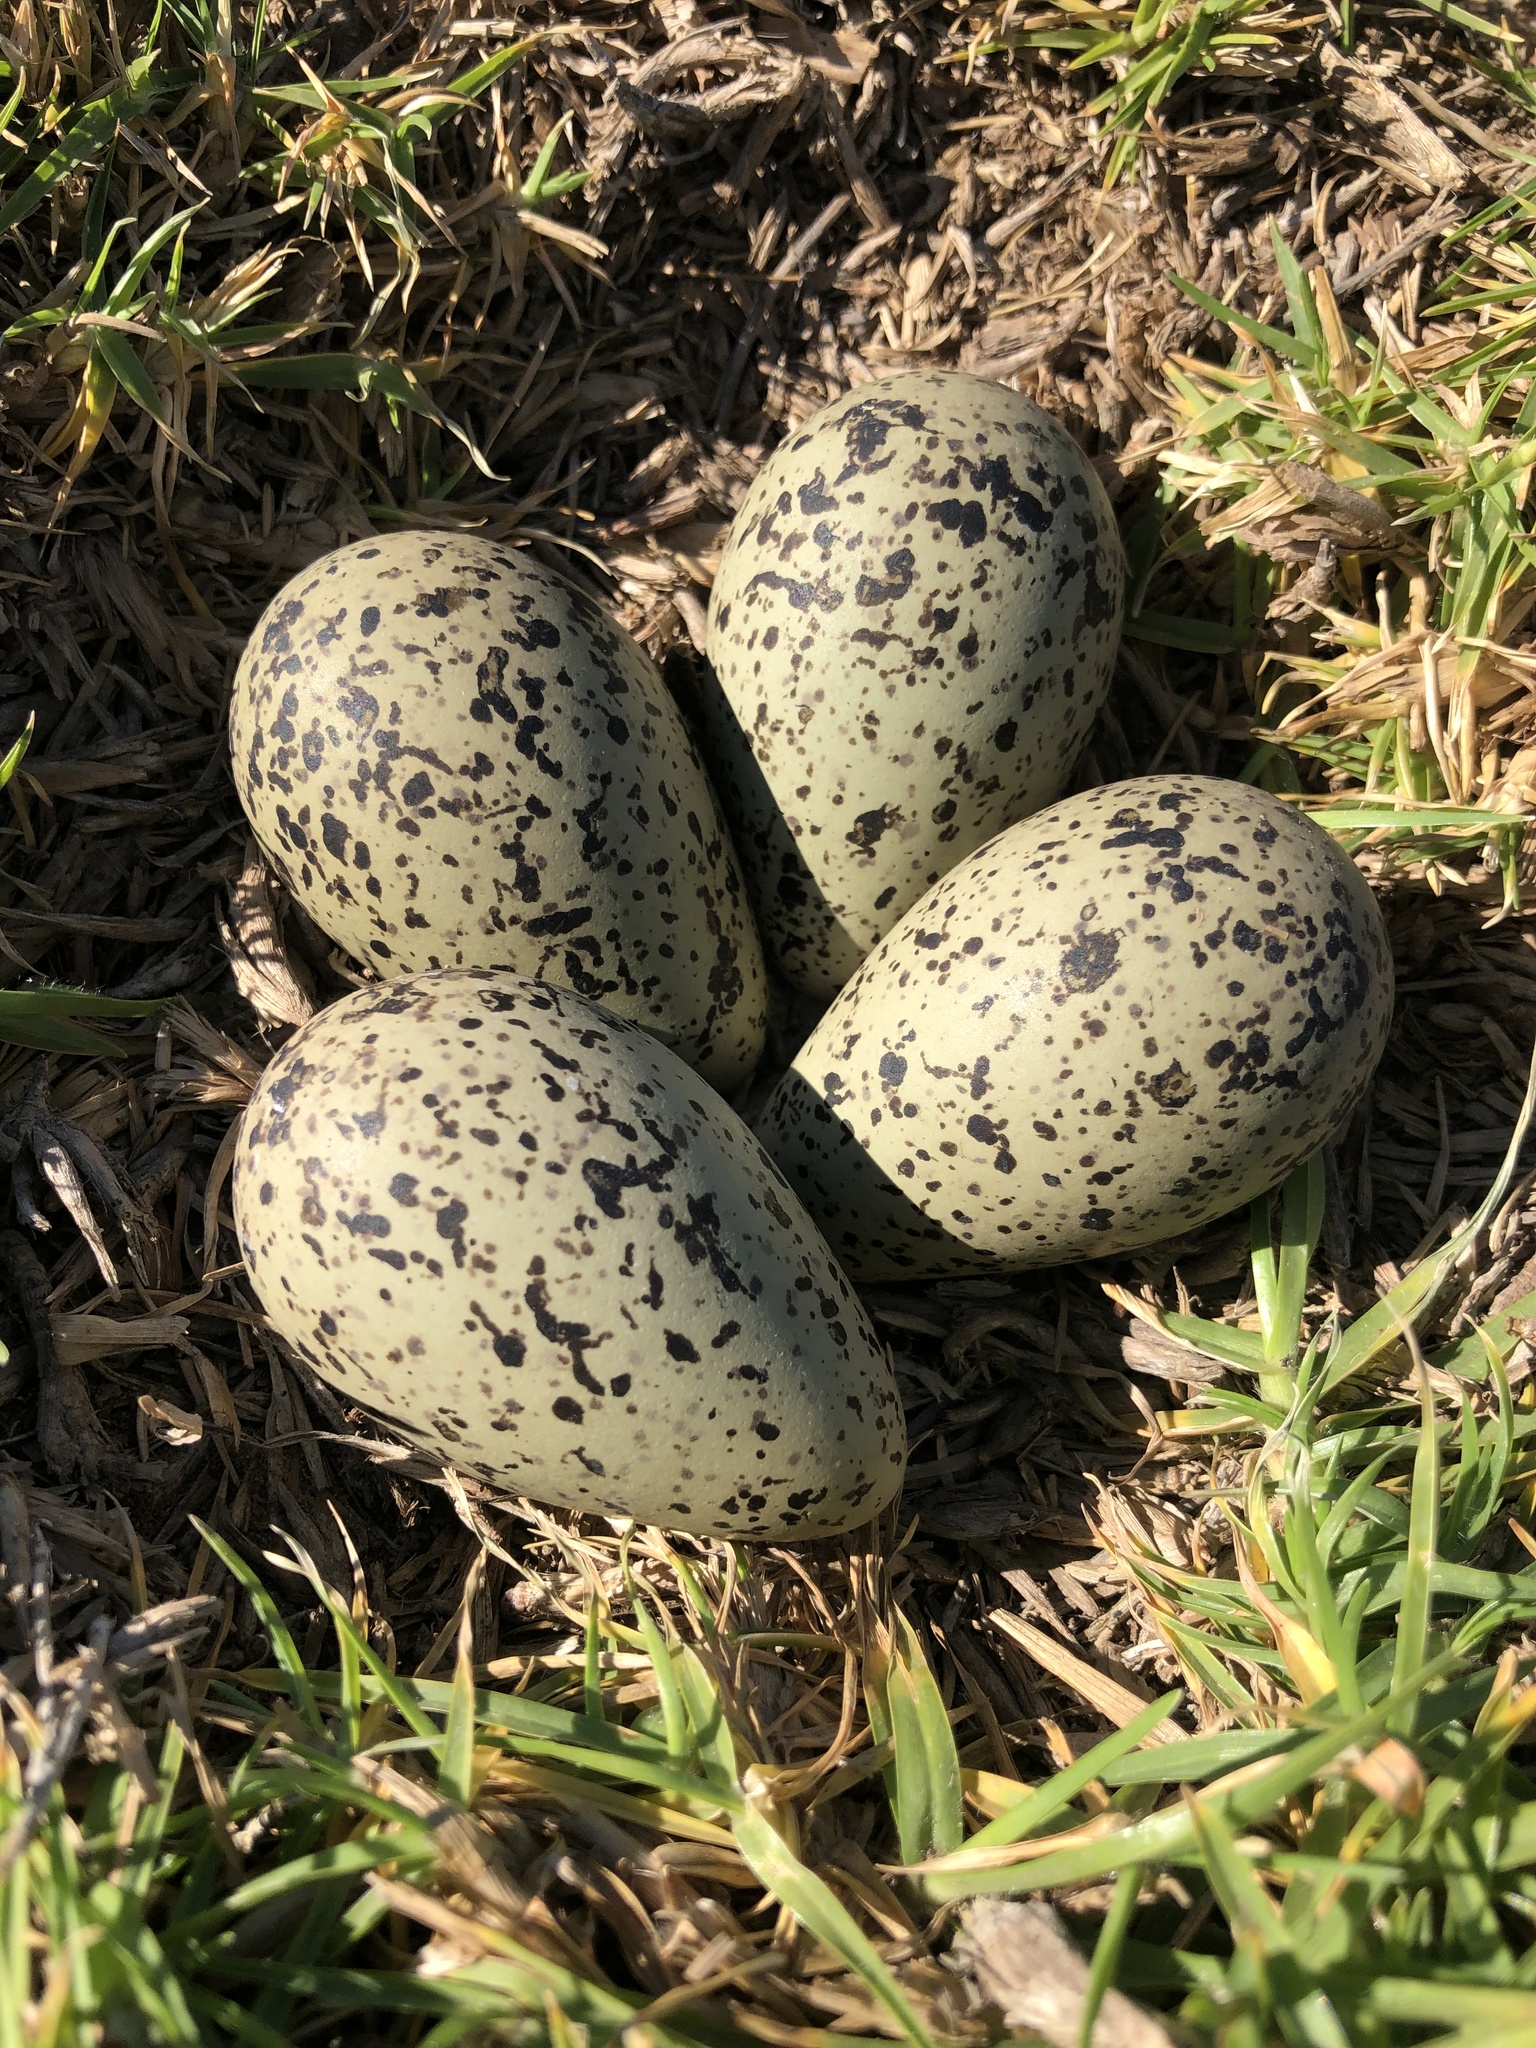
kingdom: Animalia
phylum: Chordata
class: Aves
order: Charadriiformes
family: Charadriidae
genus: Vanellus
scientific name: Vanellus chilensis
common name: Southern lapwing
